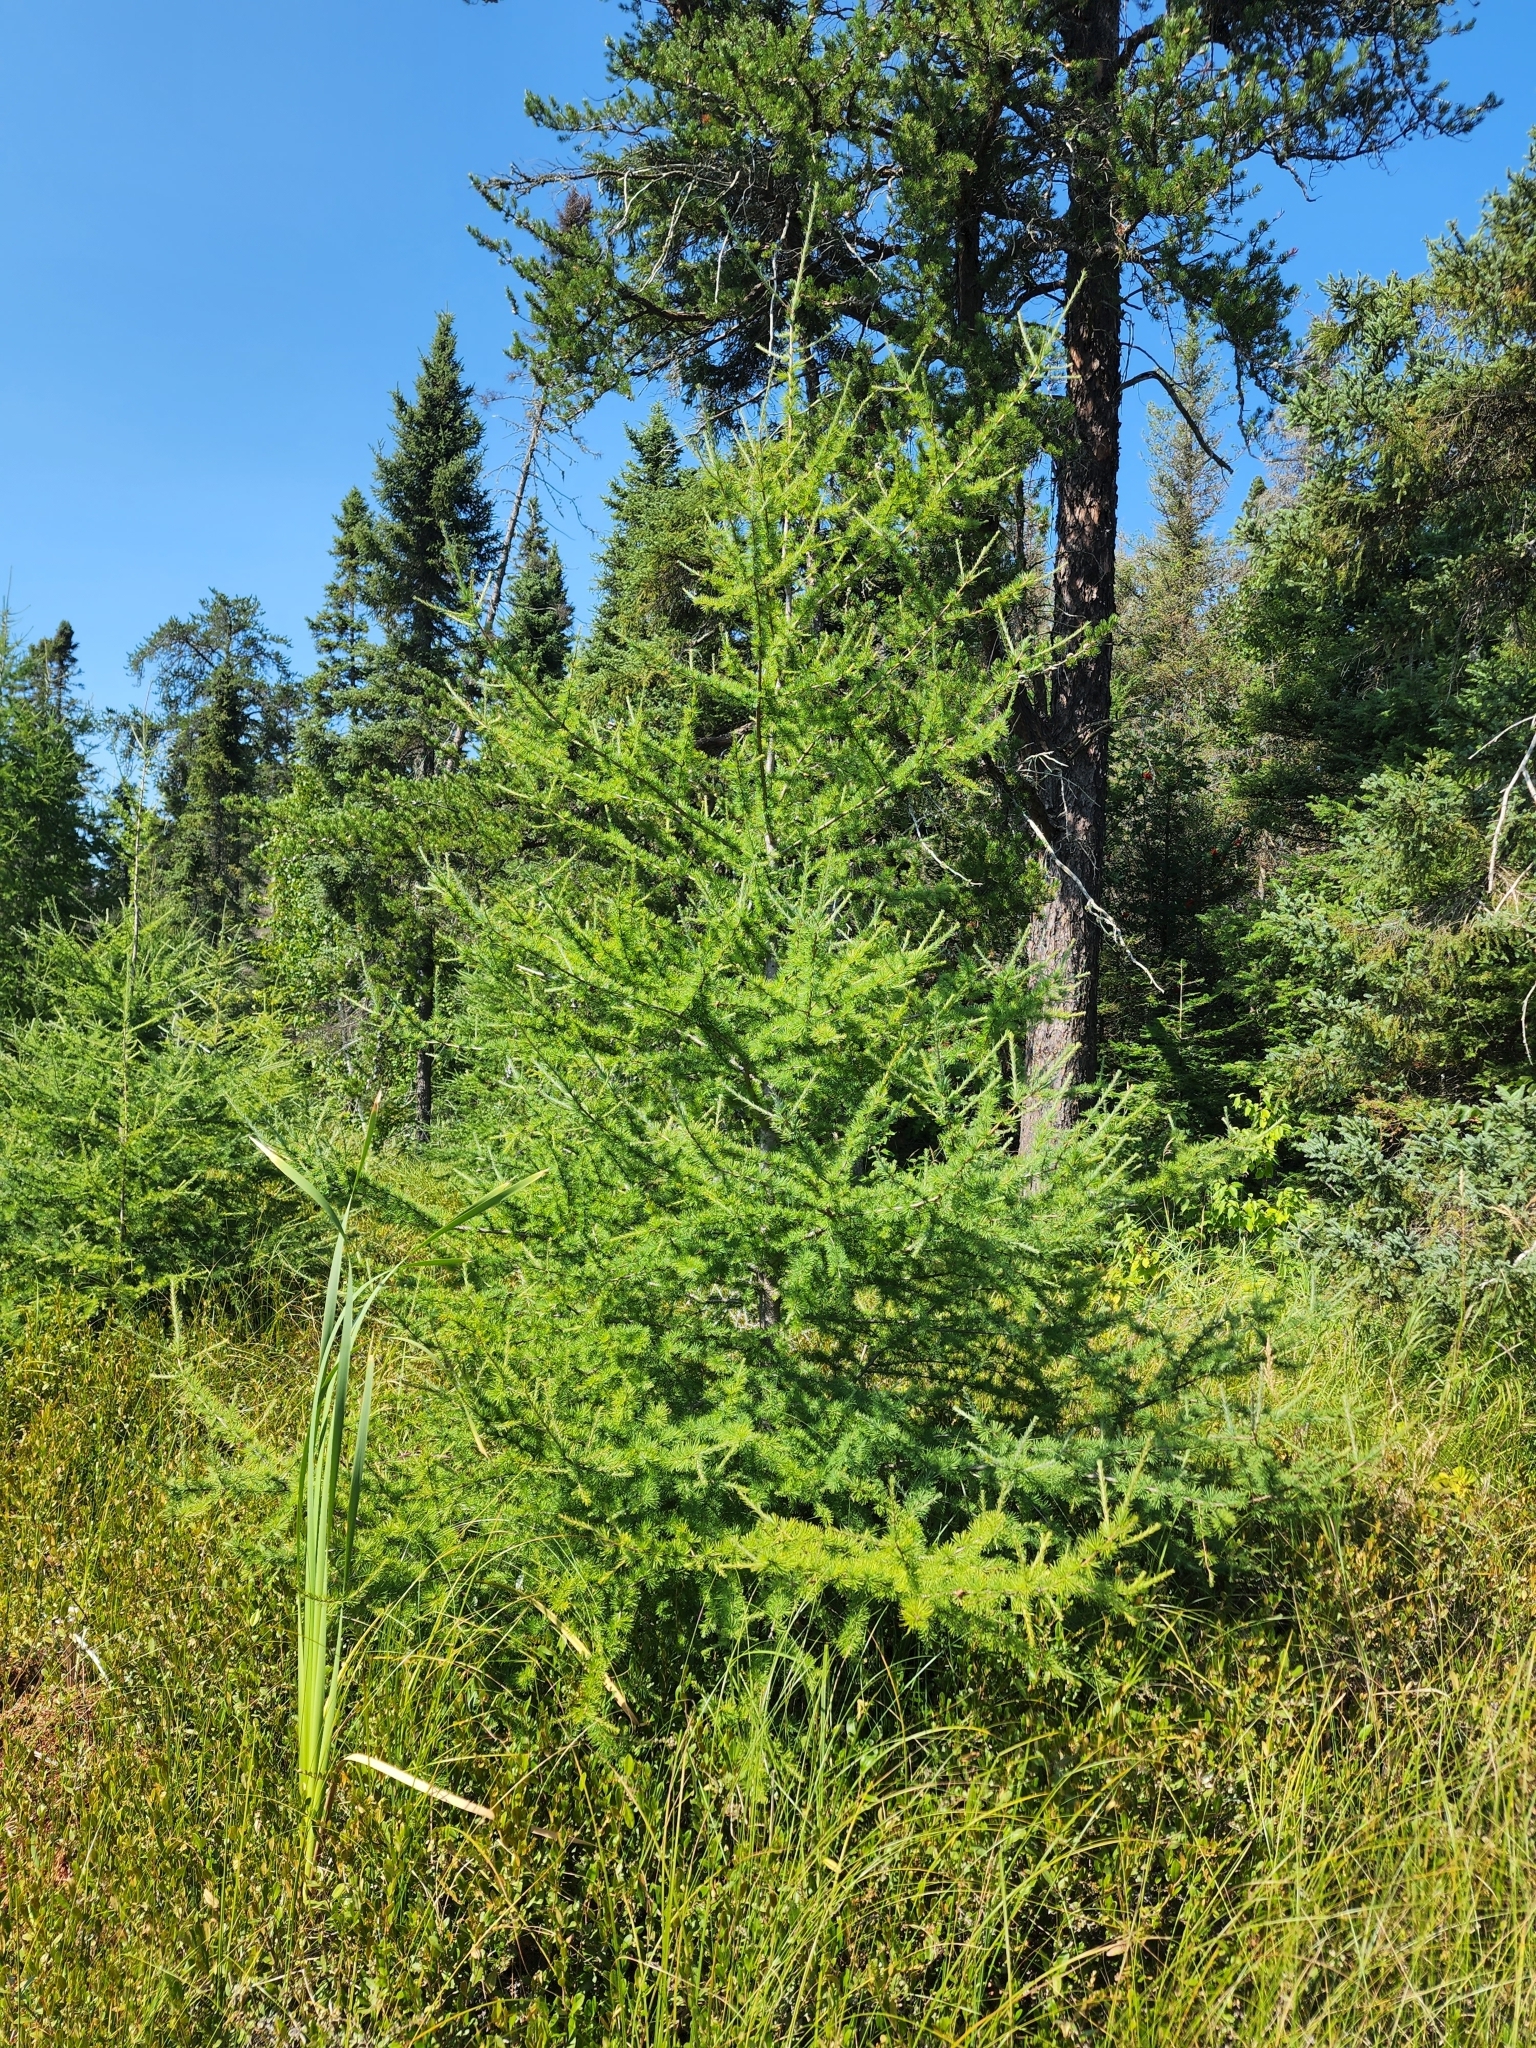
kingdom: Plantae
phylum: Tracheophyta
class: Pinopsida
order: Pinales
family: Pinaceae
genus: Larix
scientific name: Larix laricina
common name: American larch
